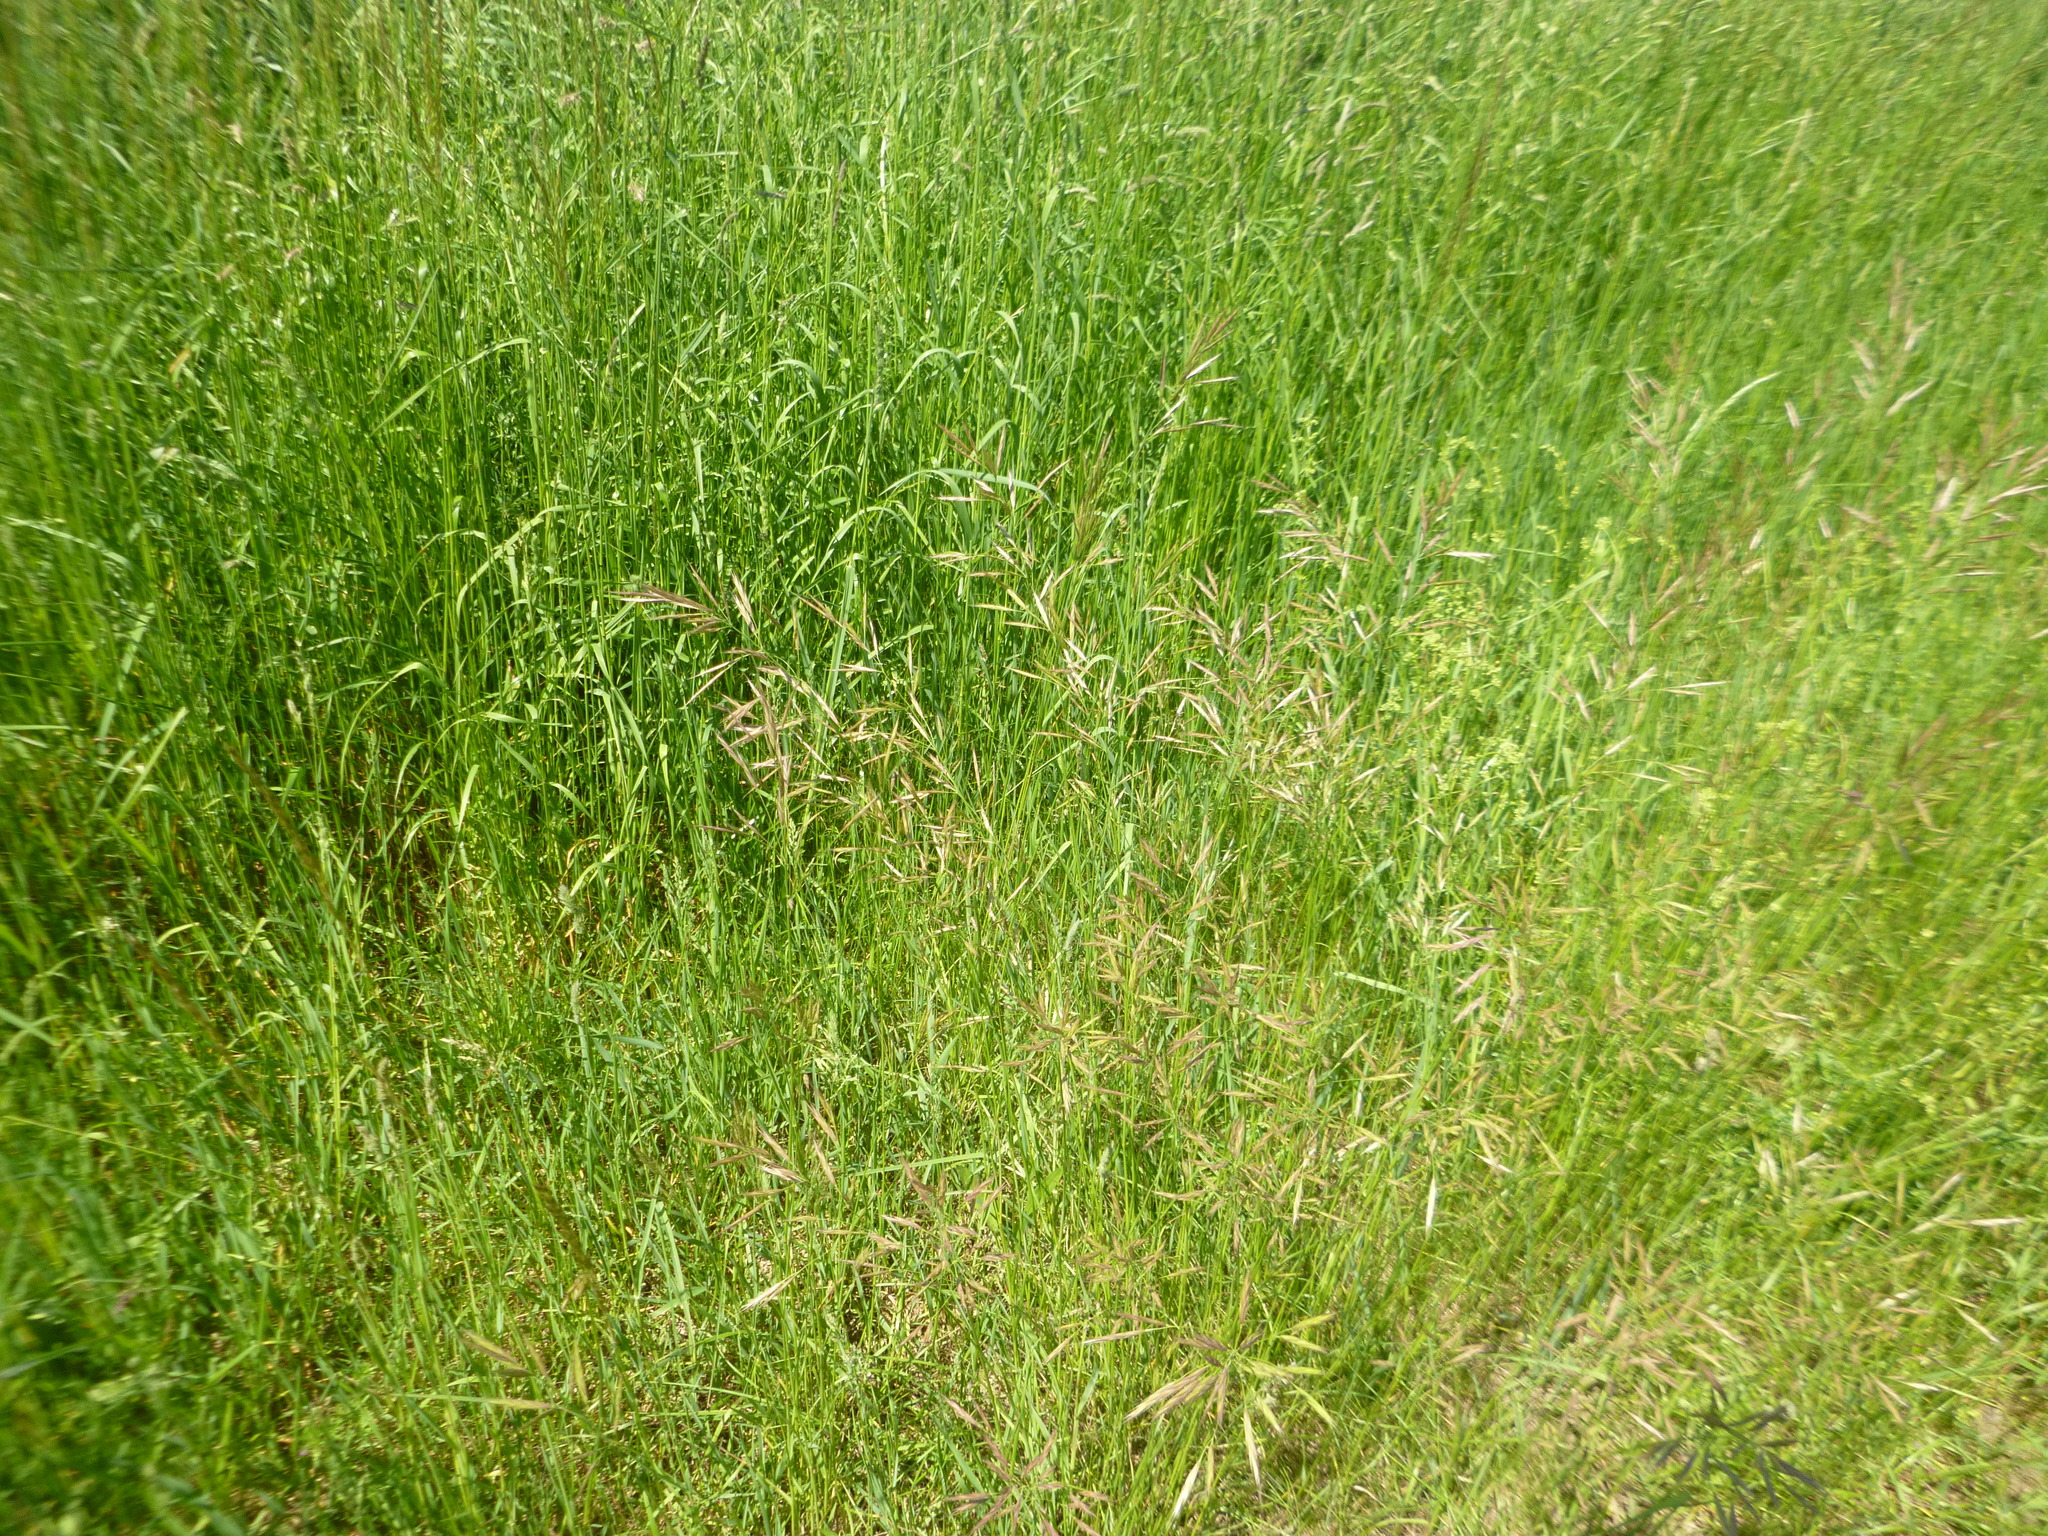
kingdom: Plantae
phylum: Tracheophyta
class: Liliopsida
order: Poales
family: Poaceae
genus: Bromus
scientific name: Bromus erectus
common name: Erect brome
